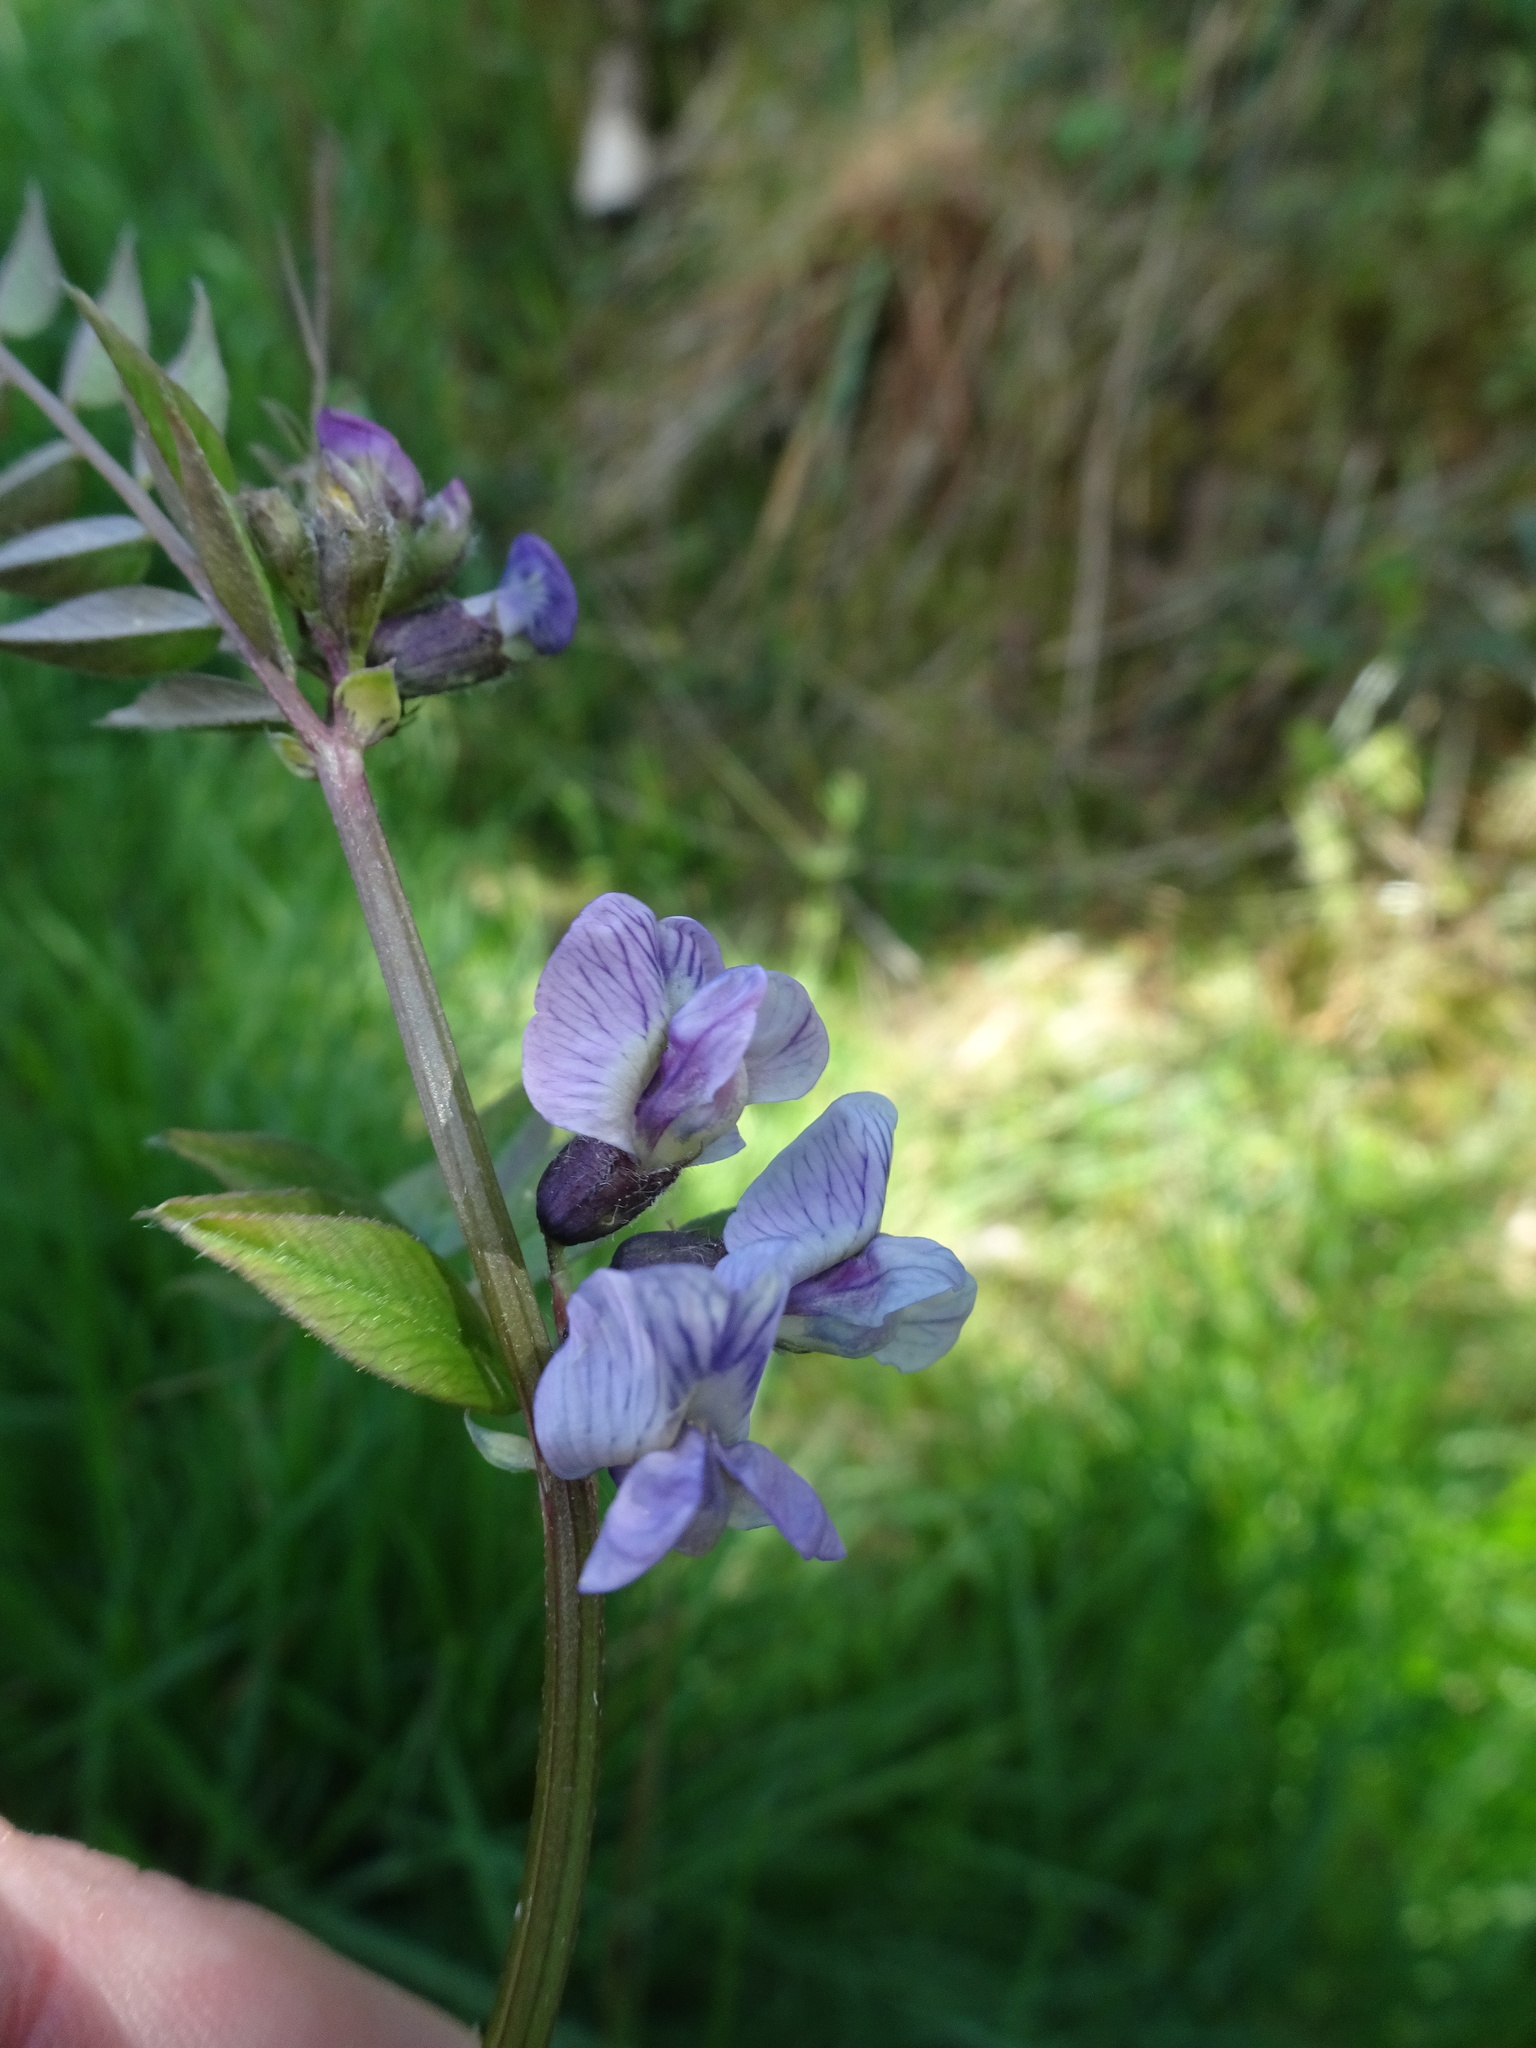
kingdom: Plantae
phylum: Tracheophyta
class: Magnoliopsida
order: Fabales
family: Fabaceae
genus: Vicia
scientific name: Vicia sepium
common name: Bush vetch
